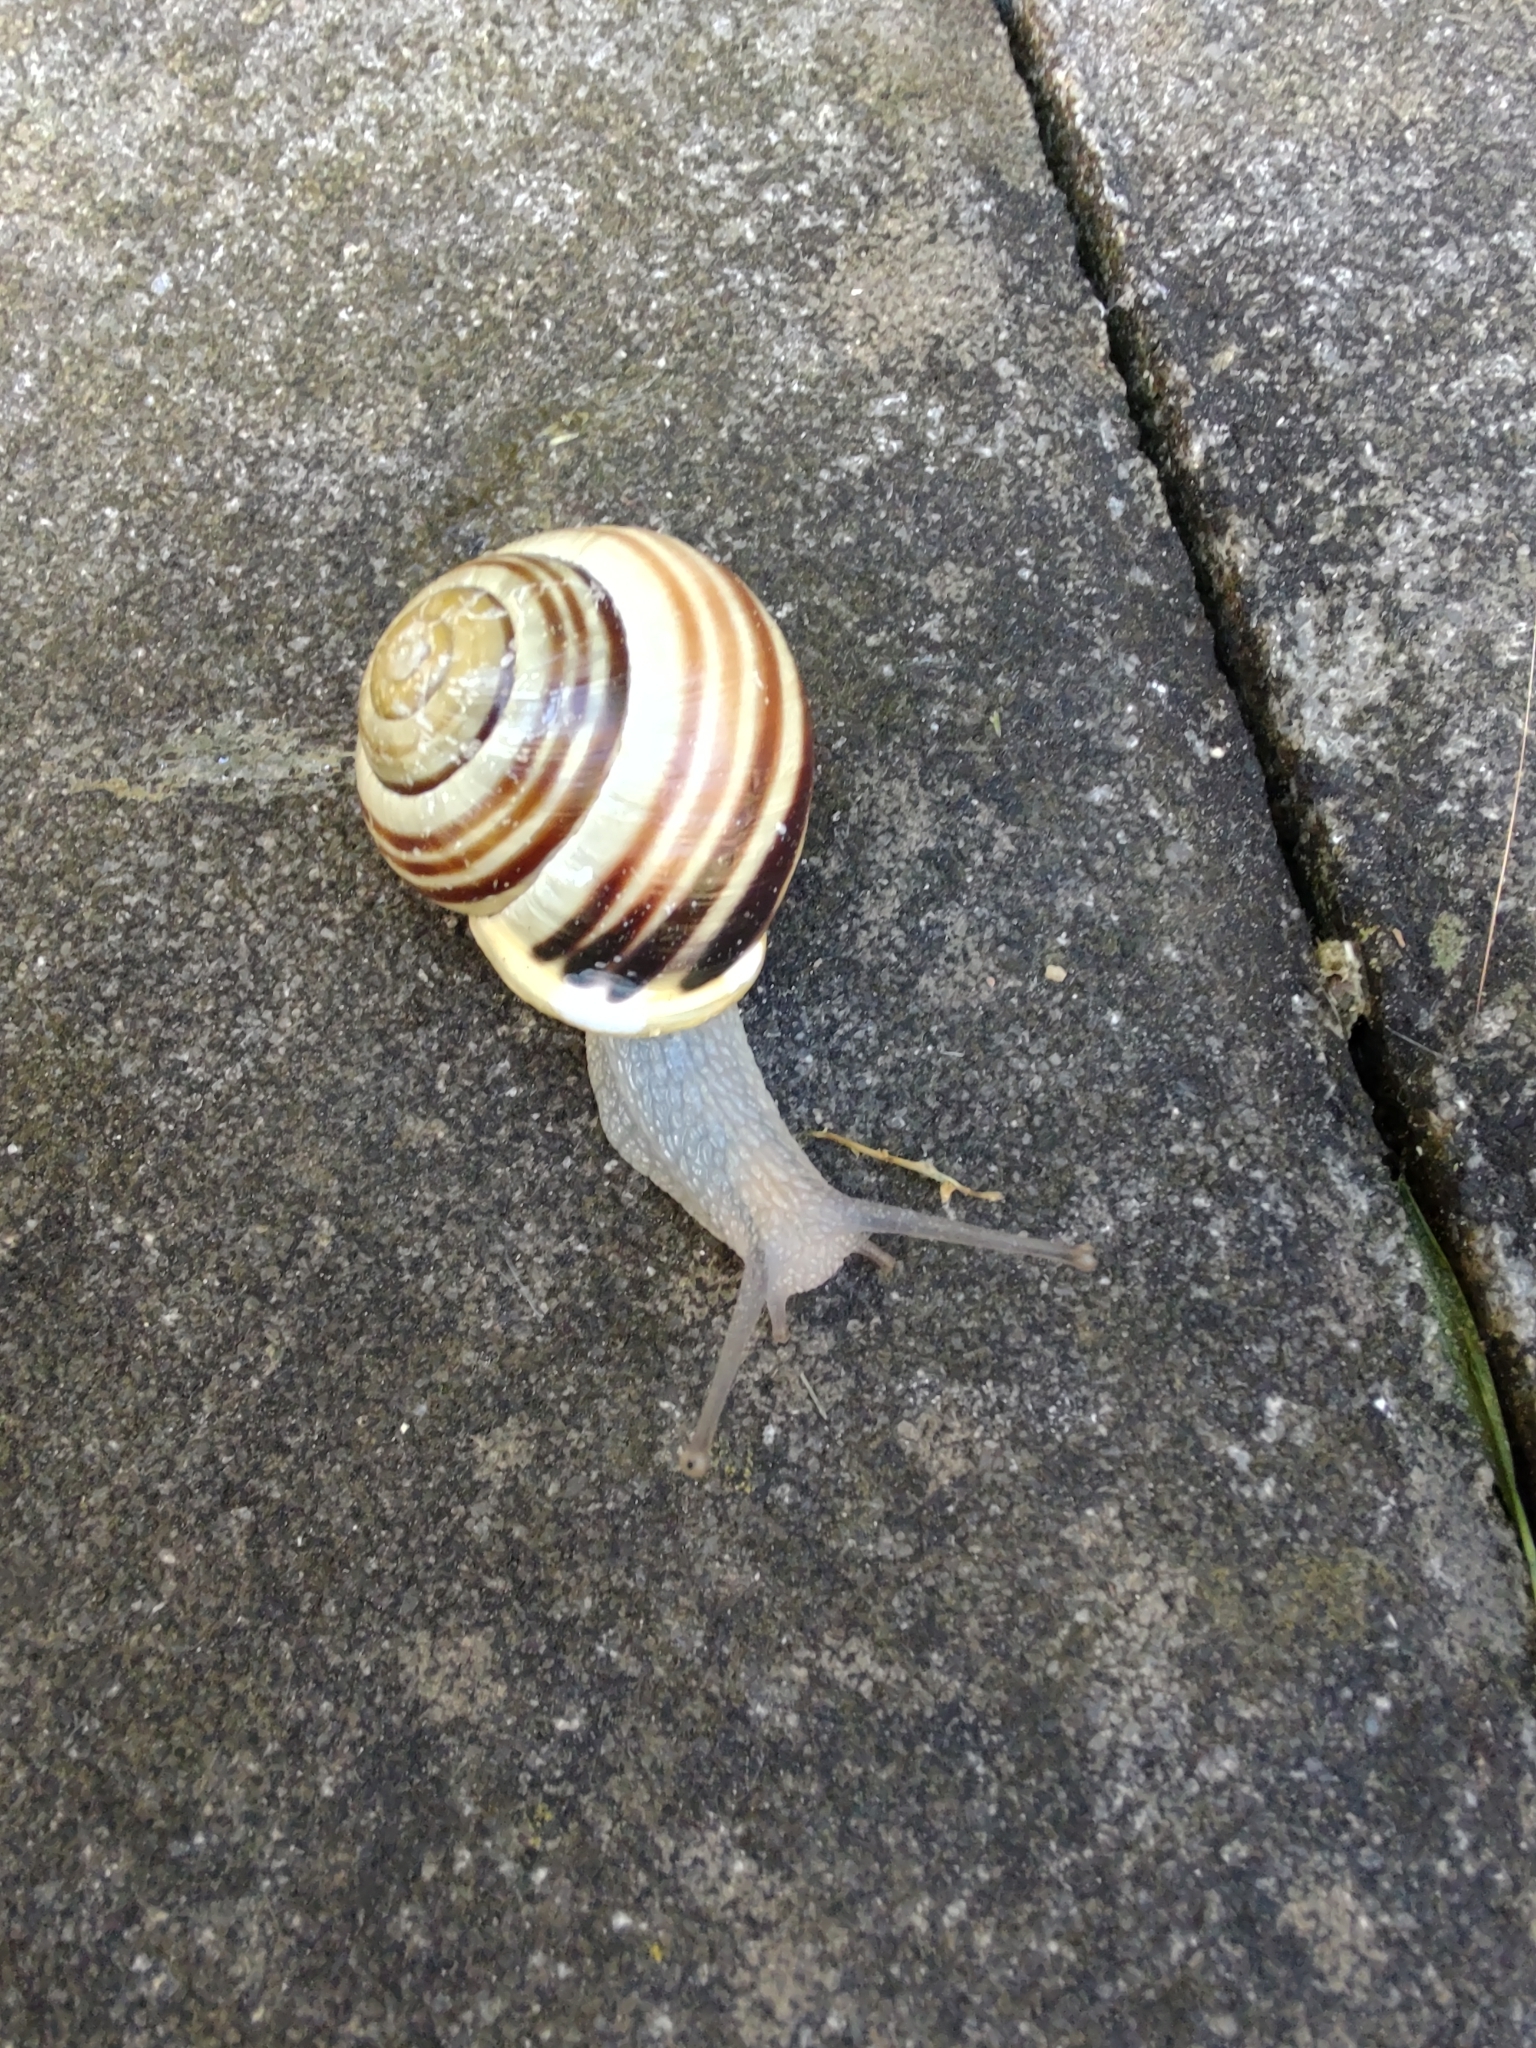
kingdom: Animalia
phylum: Mollusca
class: Gastropoda
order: Stylommatophora
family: Helicidae
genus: Cepaea
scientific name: Cepaea hortensis
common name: White-lip gardensnail
